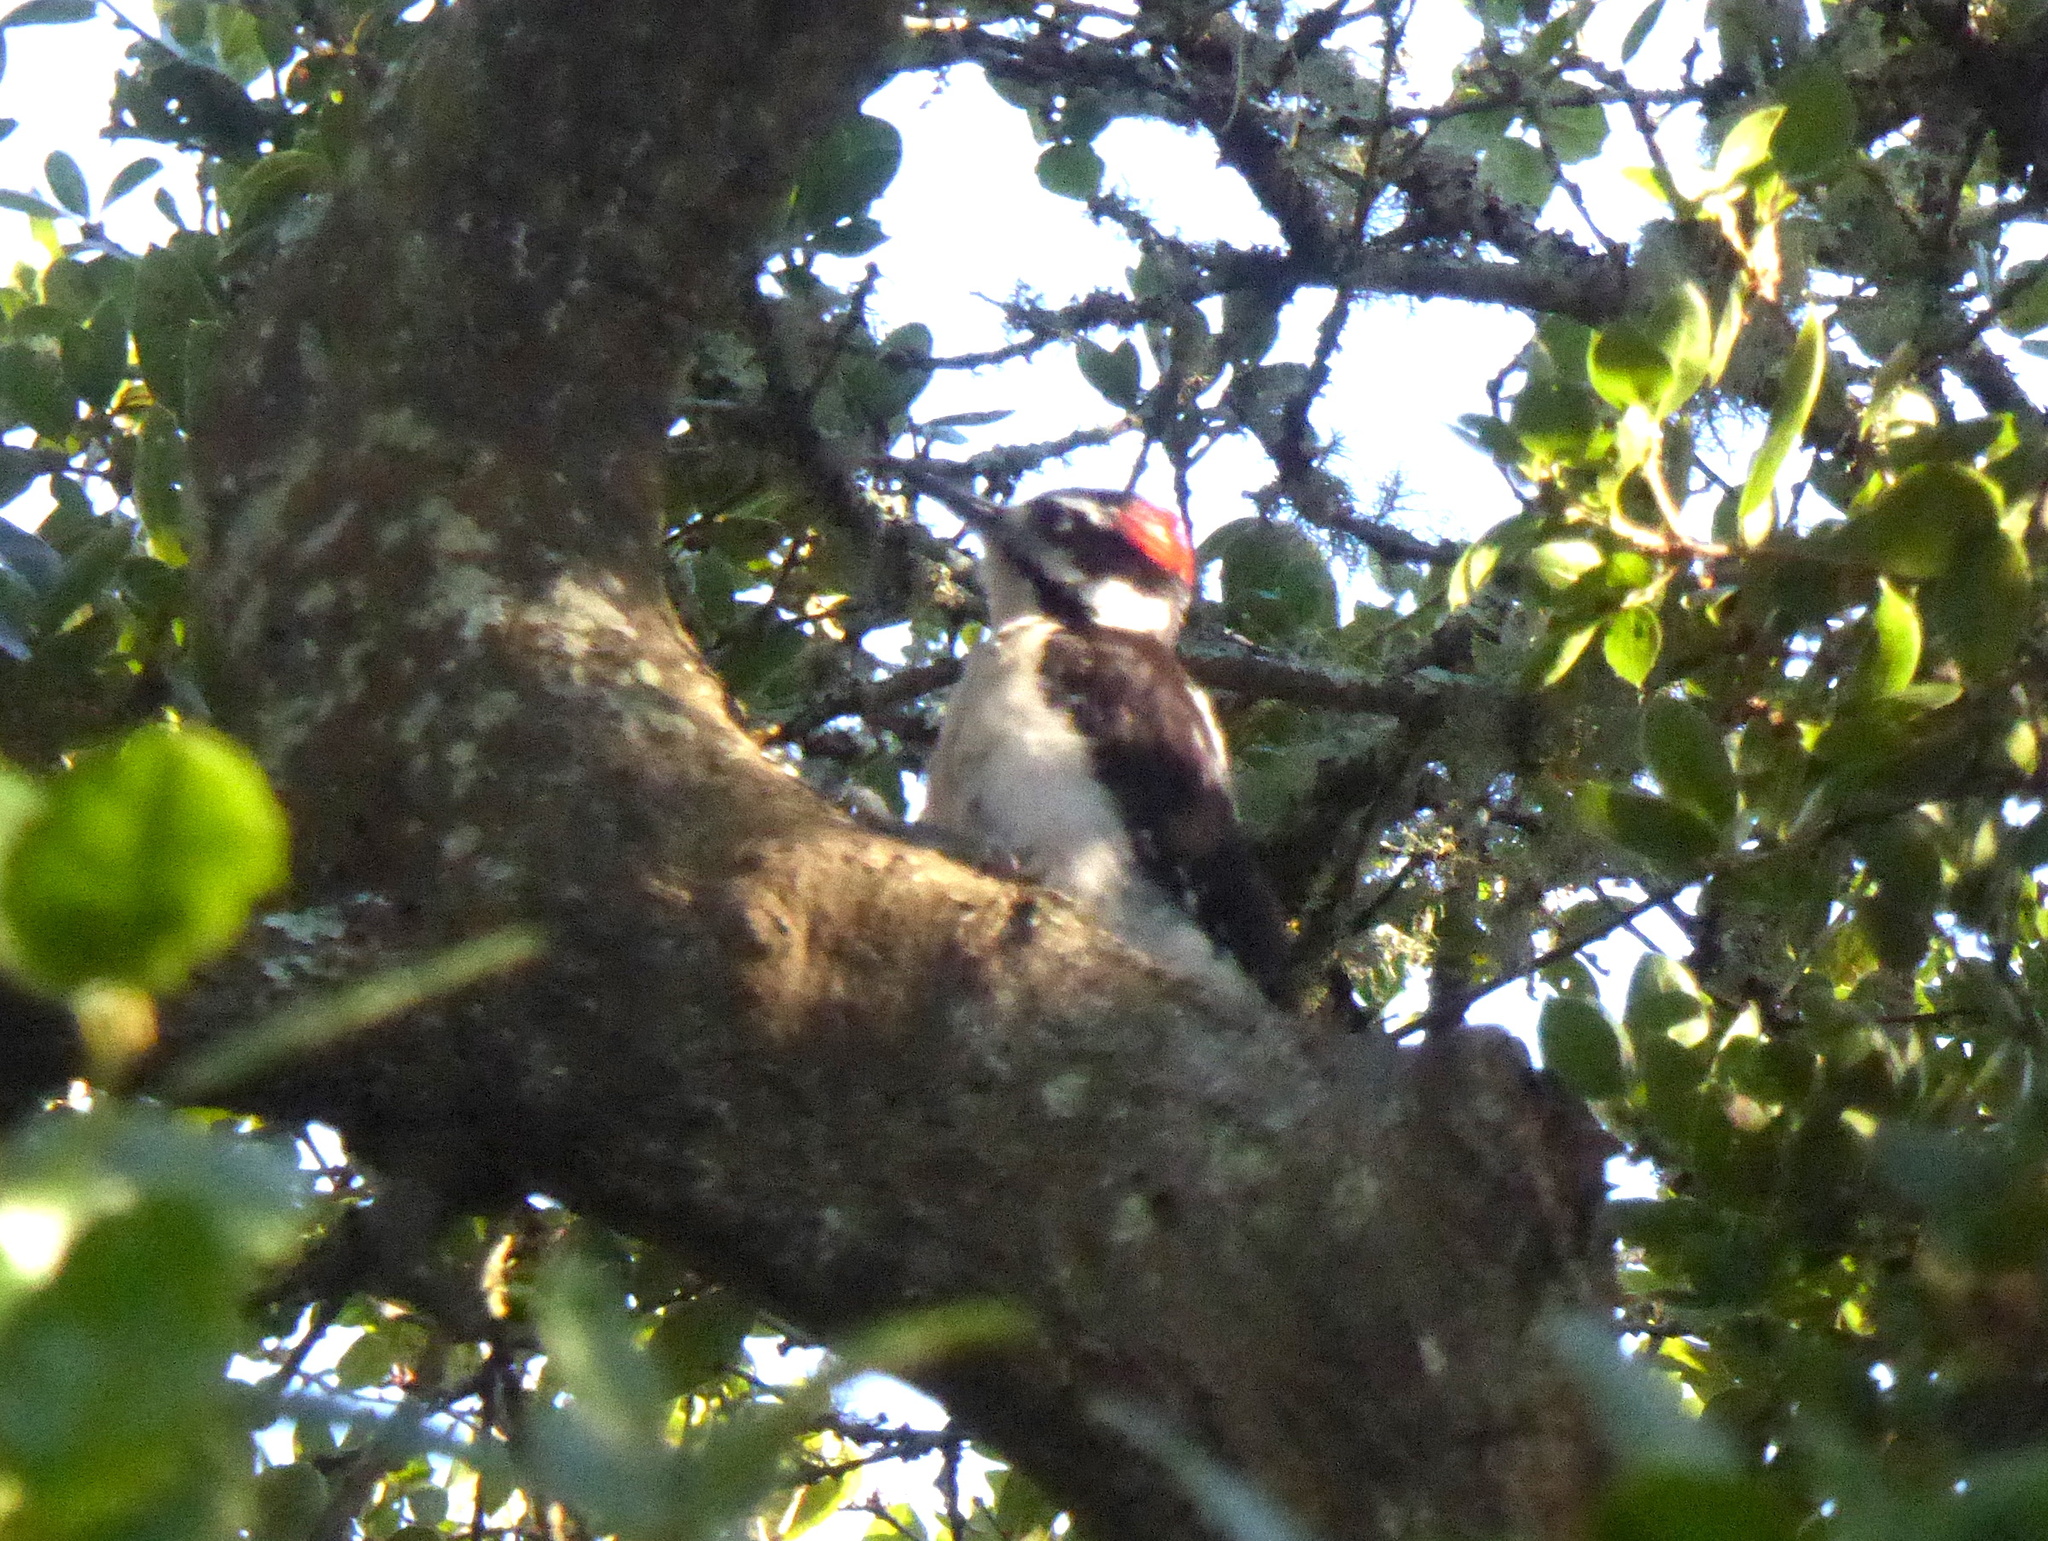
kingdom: Animalia
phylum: Chordata
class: Aves
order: Piciformes
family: Picidae
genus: Leuconotopicus
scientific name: Leuconotopicus villosus
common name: Hairy woodpecker
